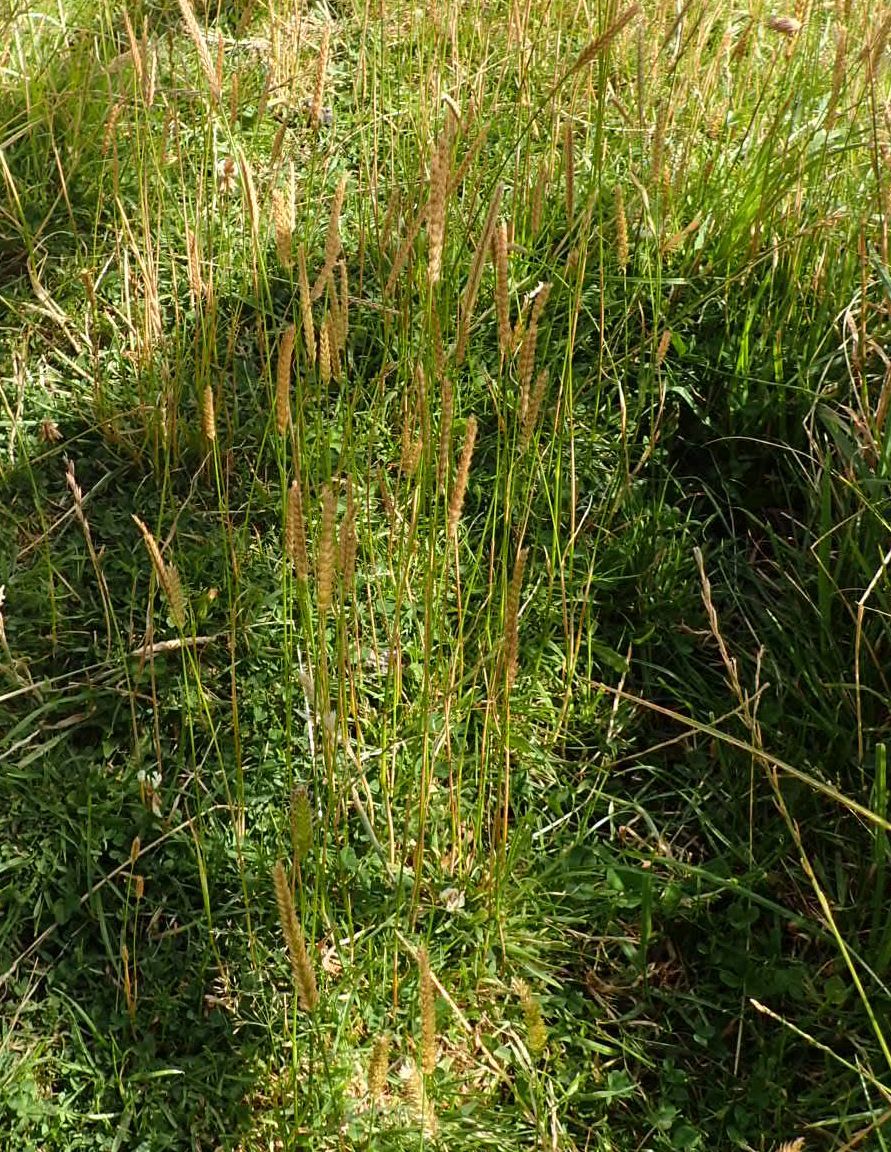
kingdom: Plantae
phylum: Tracheophyta
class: Liliopsida
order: Poales
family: Poaceae
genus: Cynosurus
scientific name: Cynosurus cristatus
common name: Crested dog's-tail
